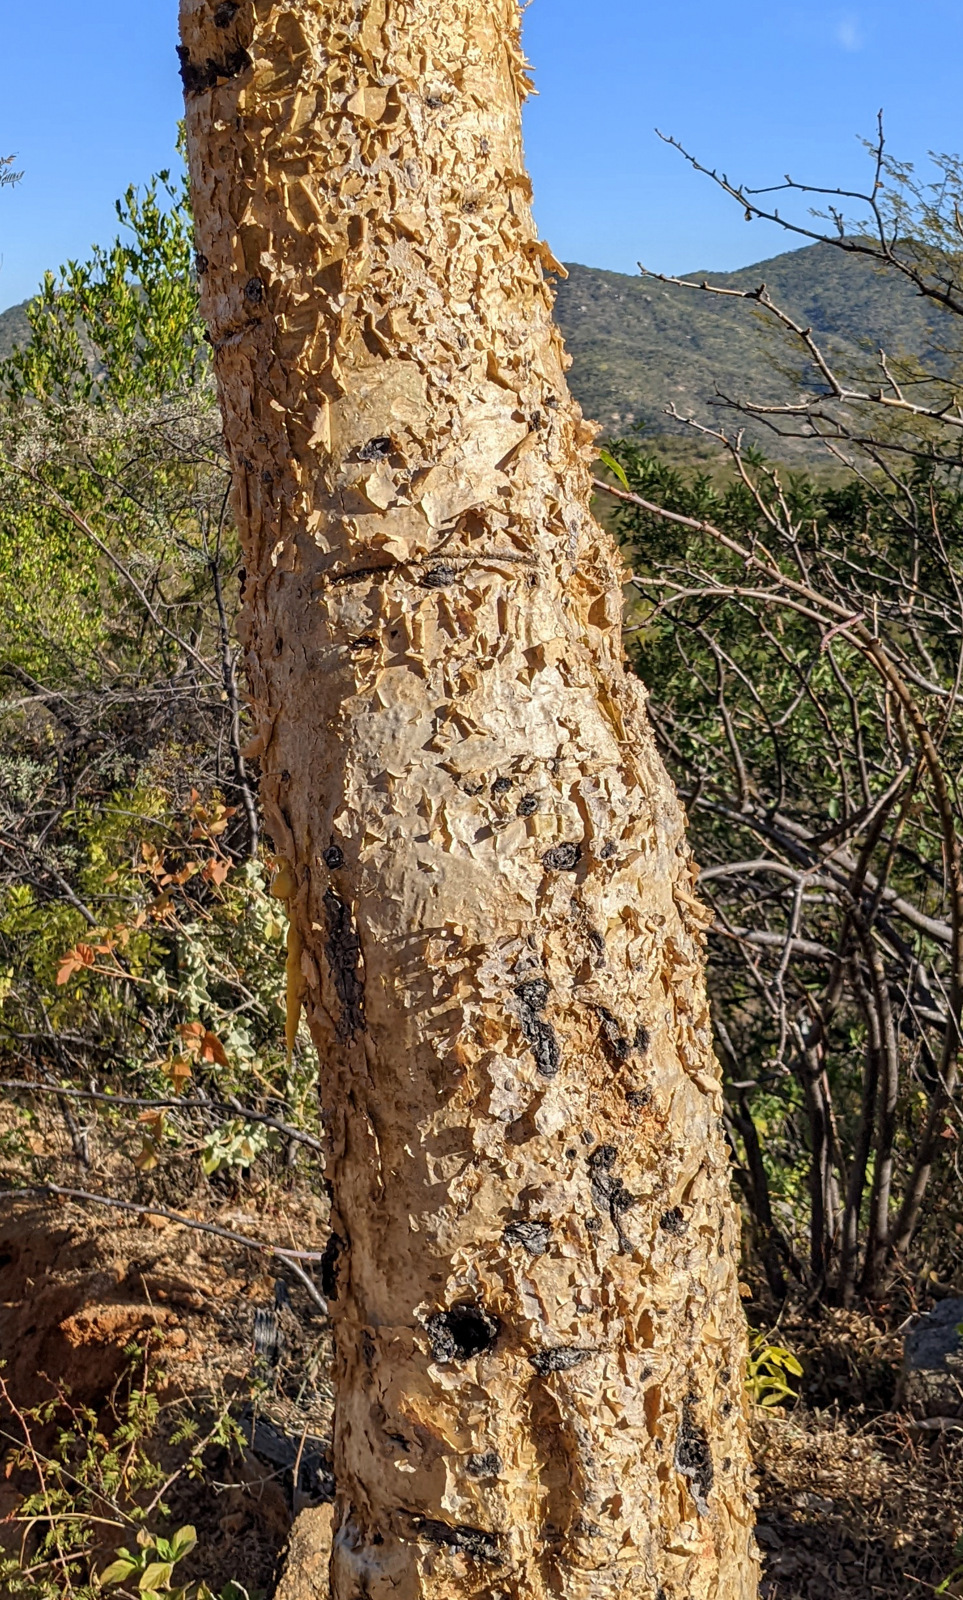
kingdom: Plantae
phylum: Tracheophyta
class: Magnoliopsida
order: Sapindales
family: Burseraceae
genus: Bursera
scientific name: Bursera microphylla
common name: Elephant tree
